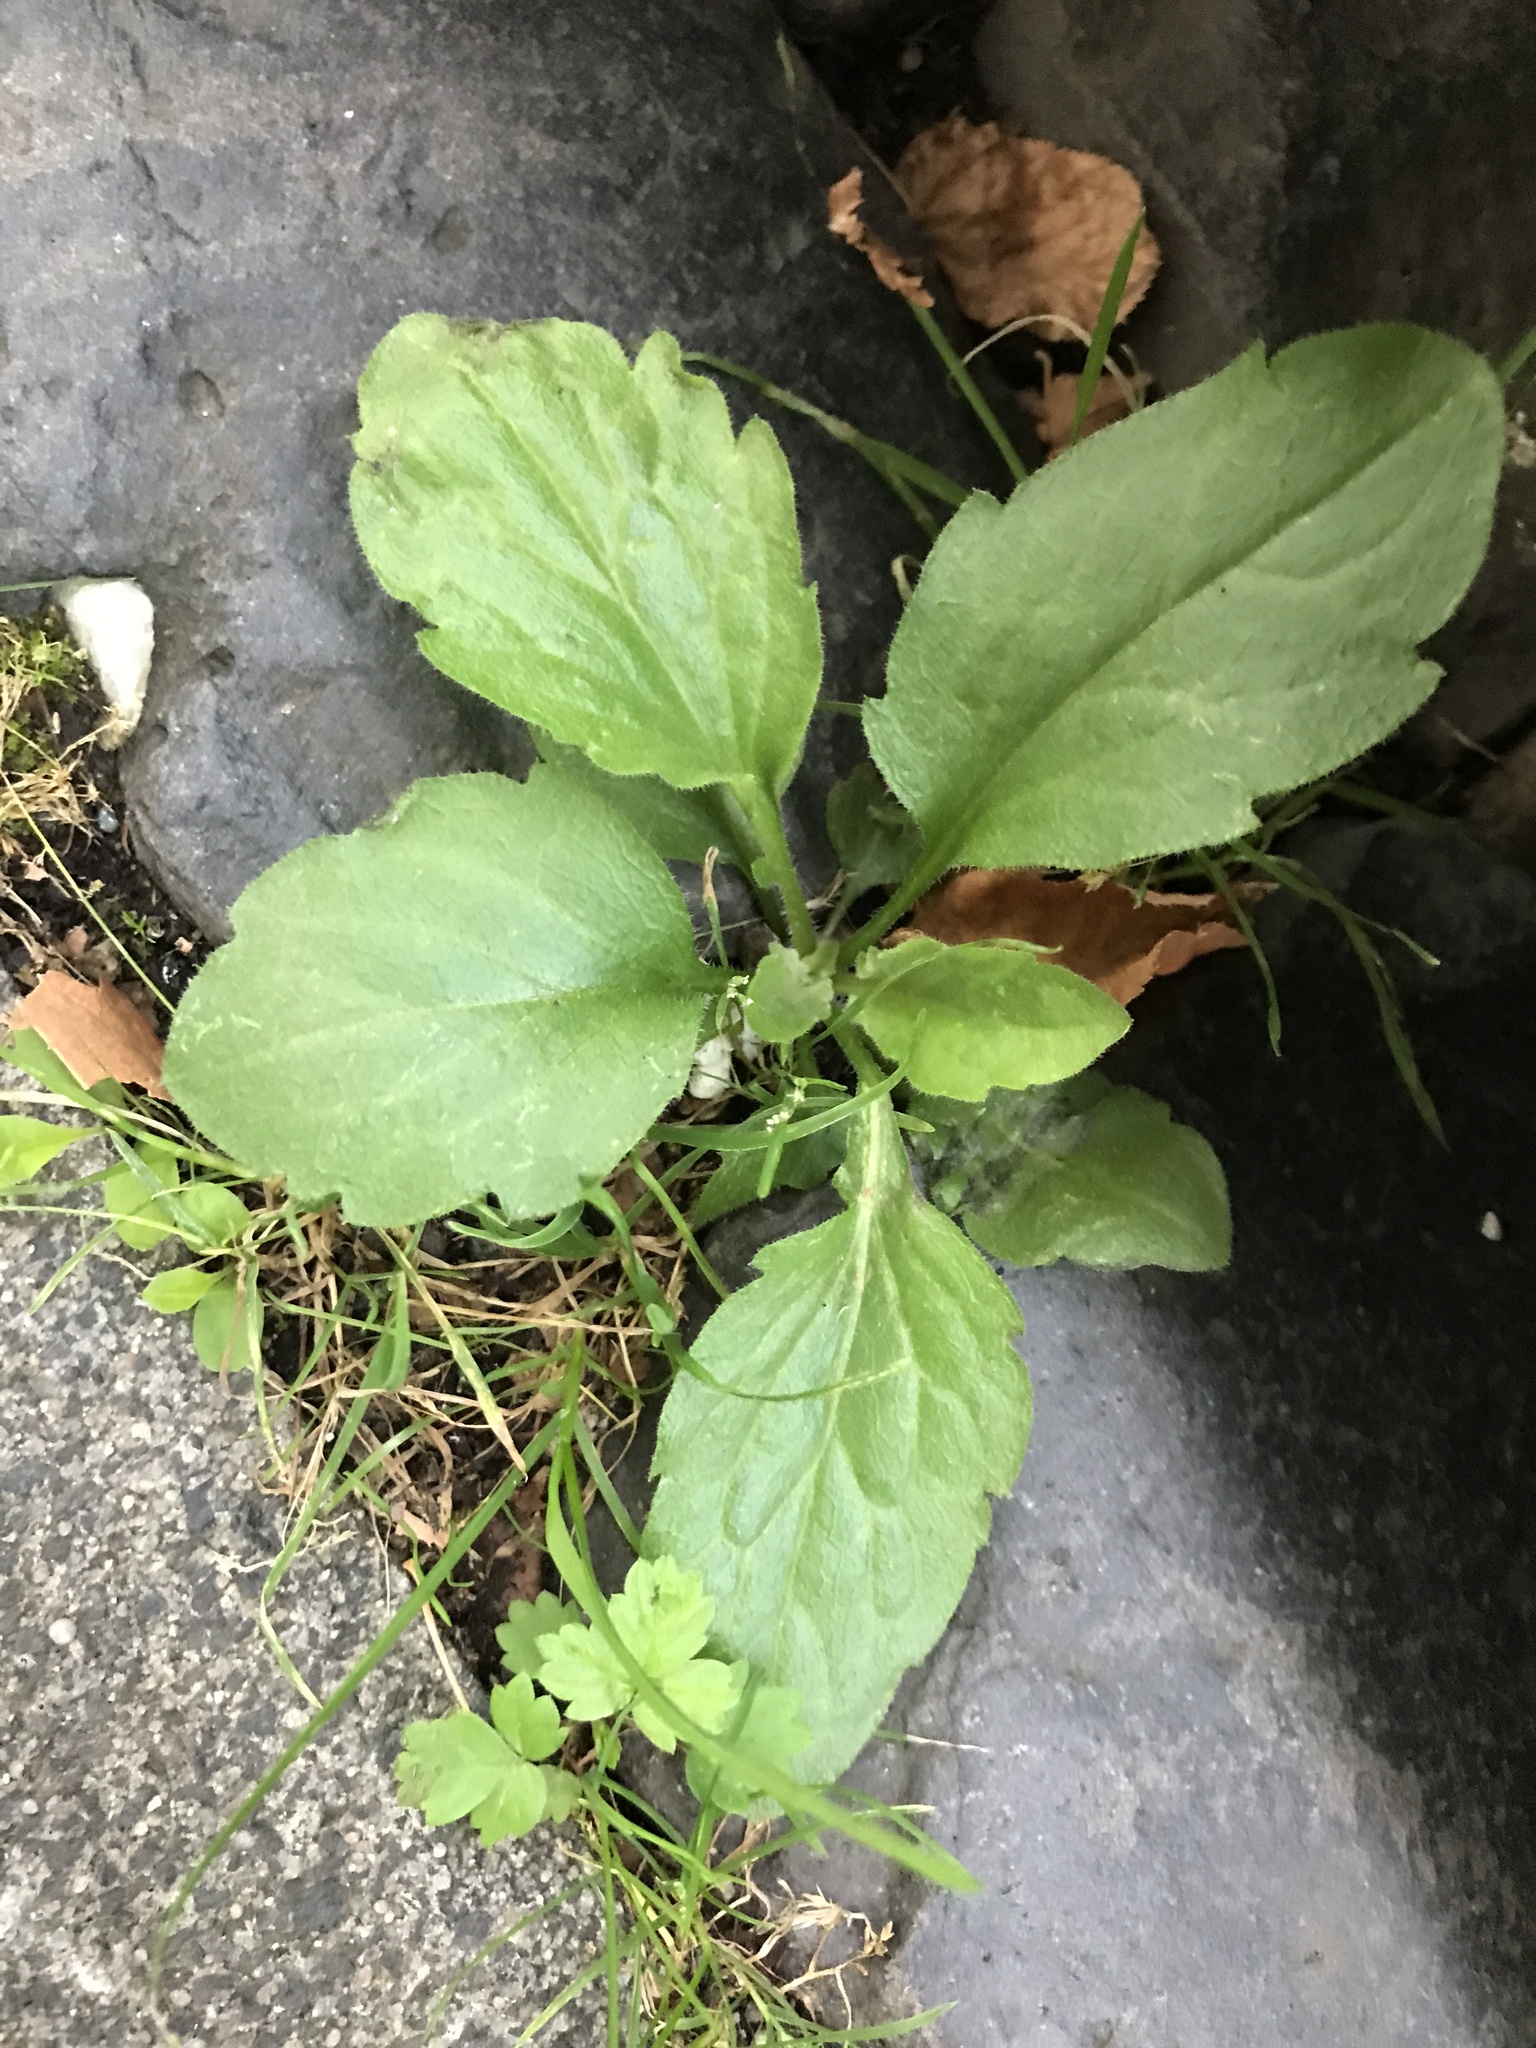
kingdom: Plantae
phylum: Tracheophyta
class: Magnoliopsida
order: Asterales
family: Asteraceae
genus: Erigeron
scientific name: Erigeron annuus
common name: Tall fleabane
